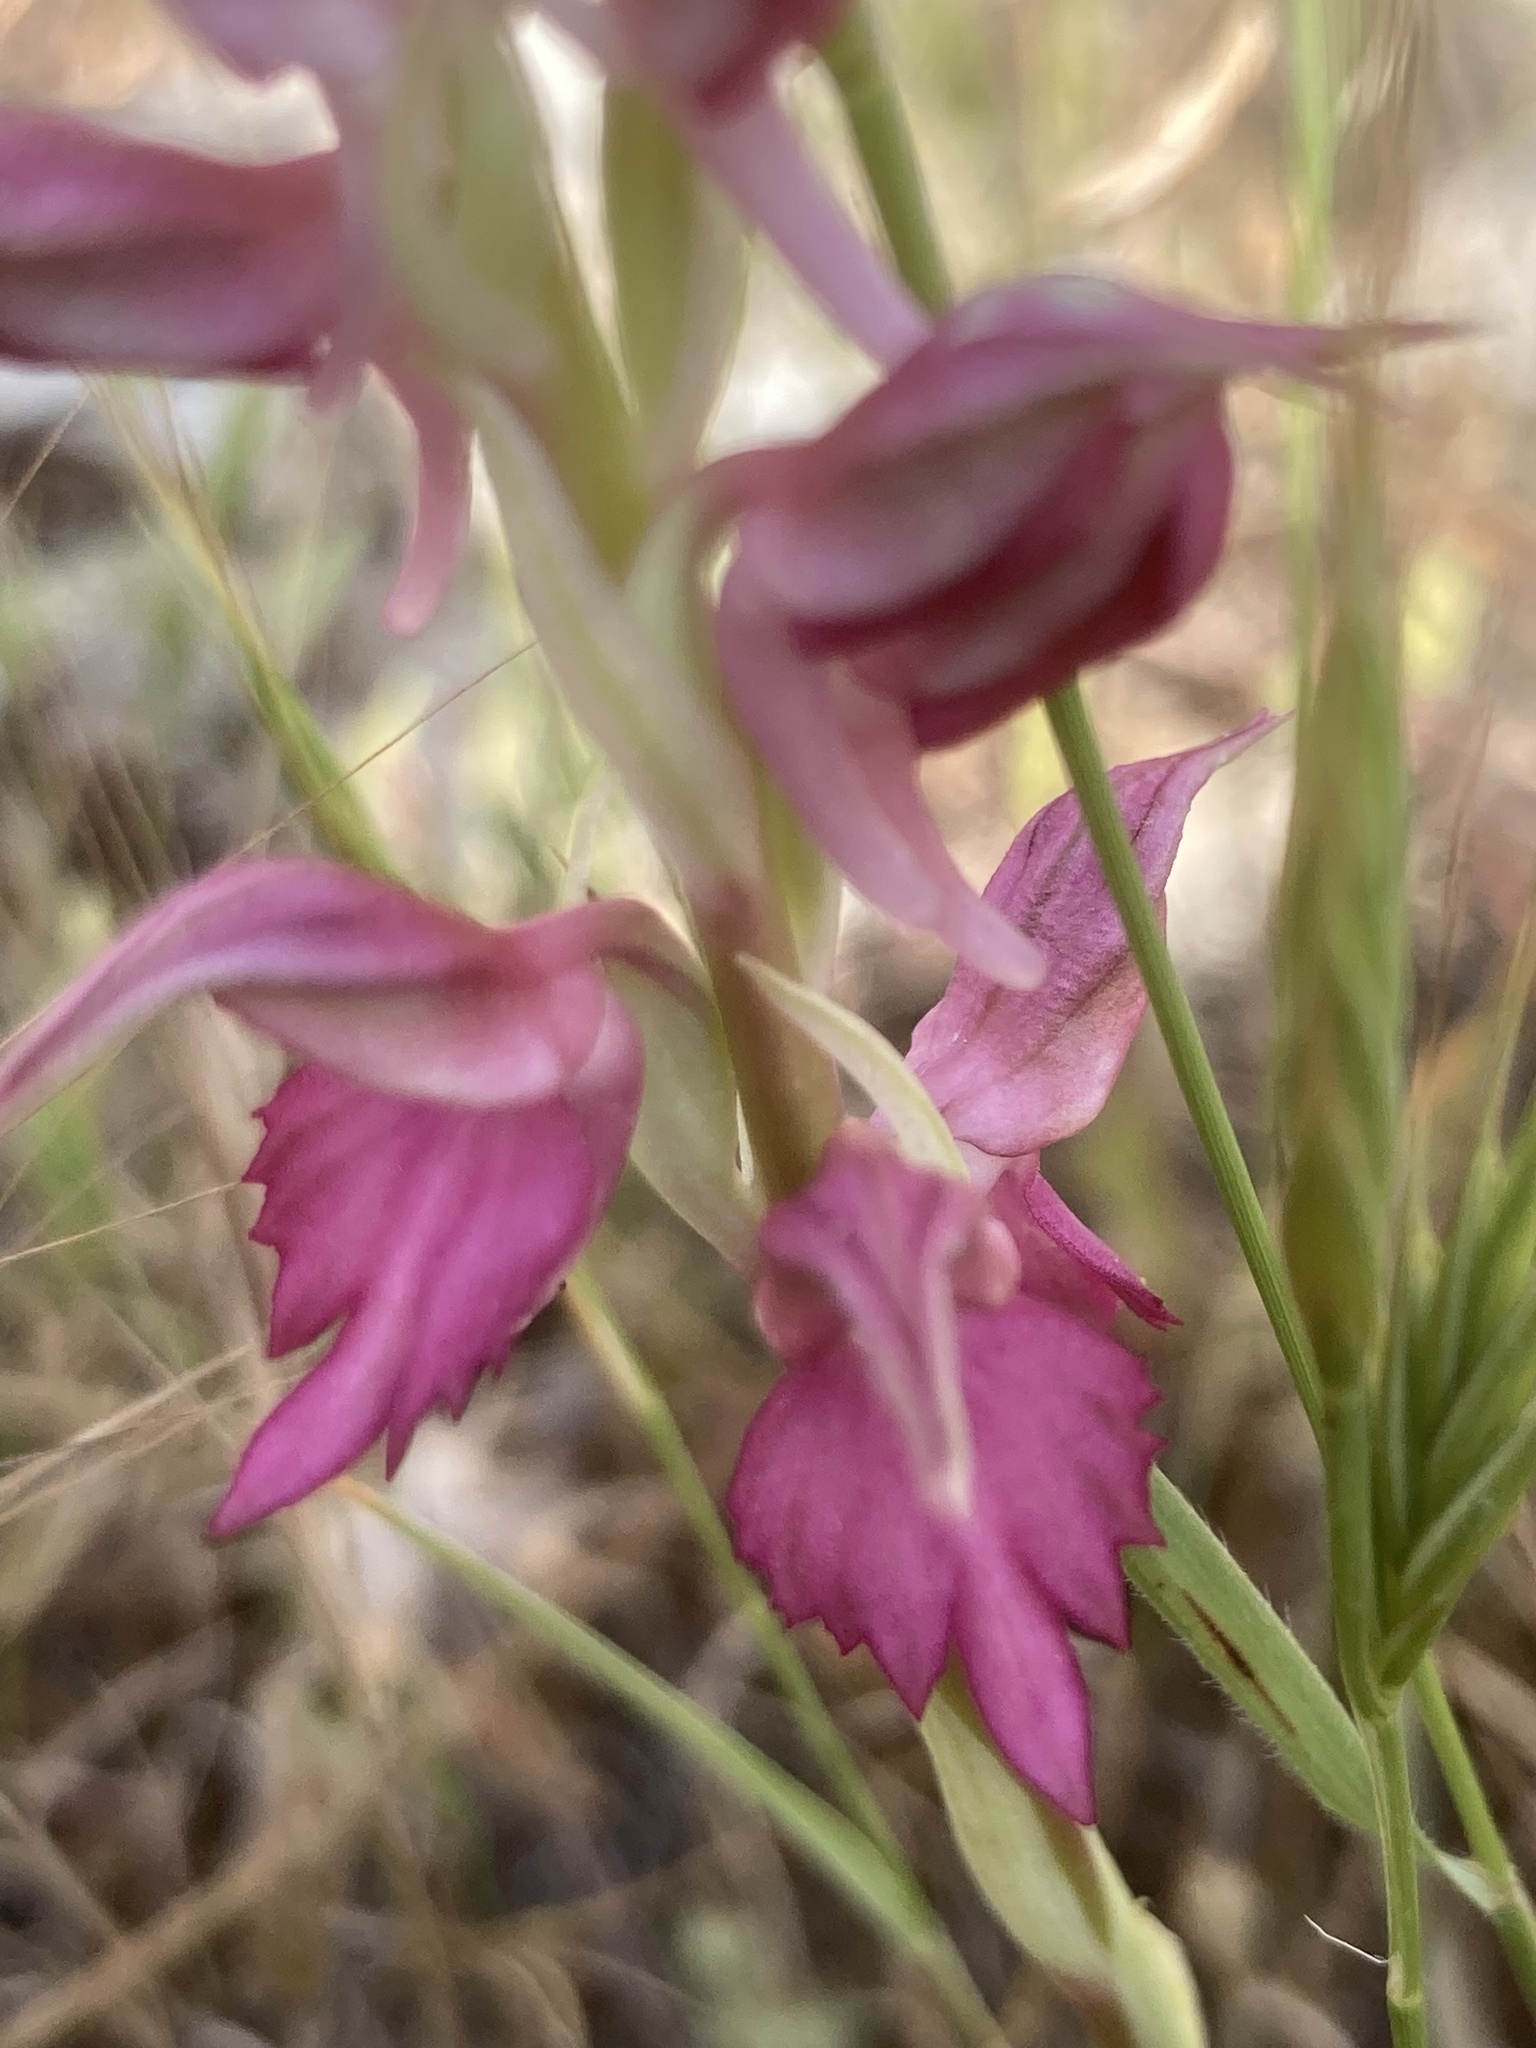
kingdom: Plantae
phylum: Tracheophyta
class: Liliopsida
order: Asparagales
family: Orchidaceae
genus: Anacamptis
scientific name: Anacamptis sancta
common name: Holy orchid
